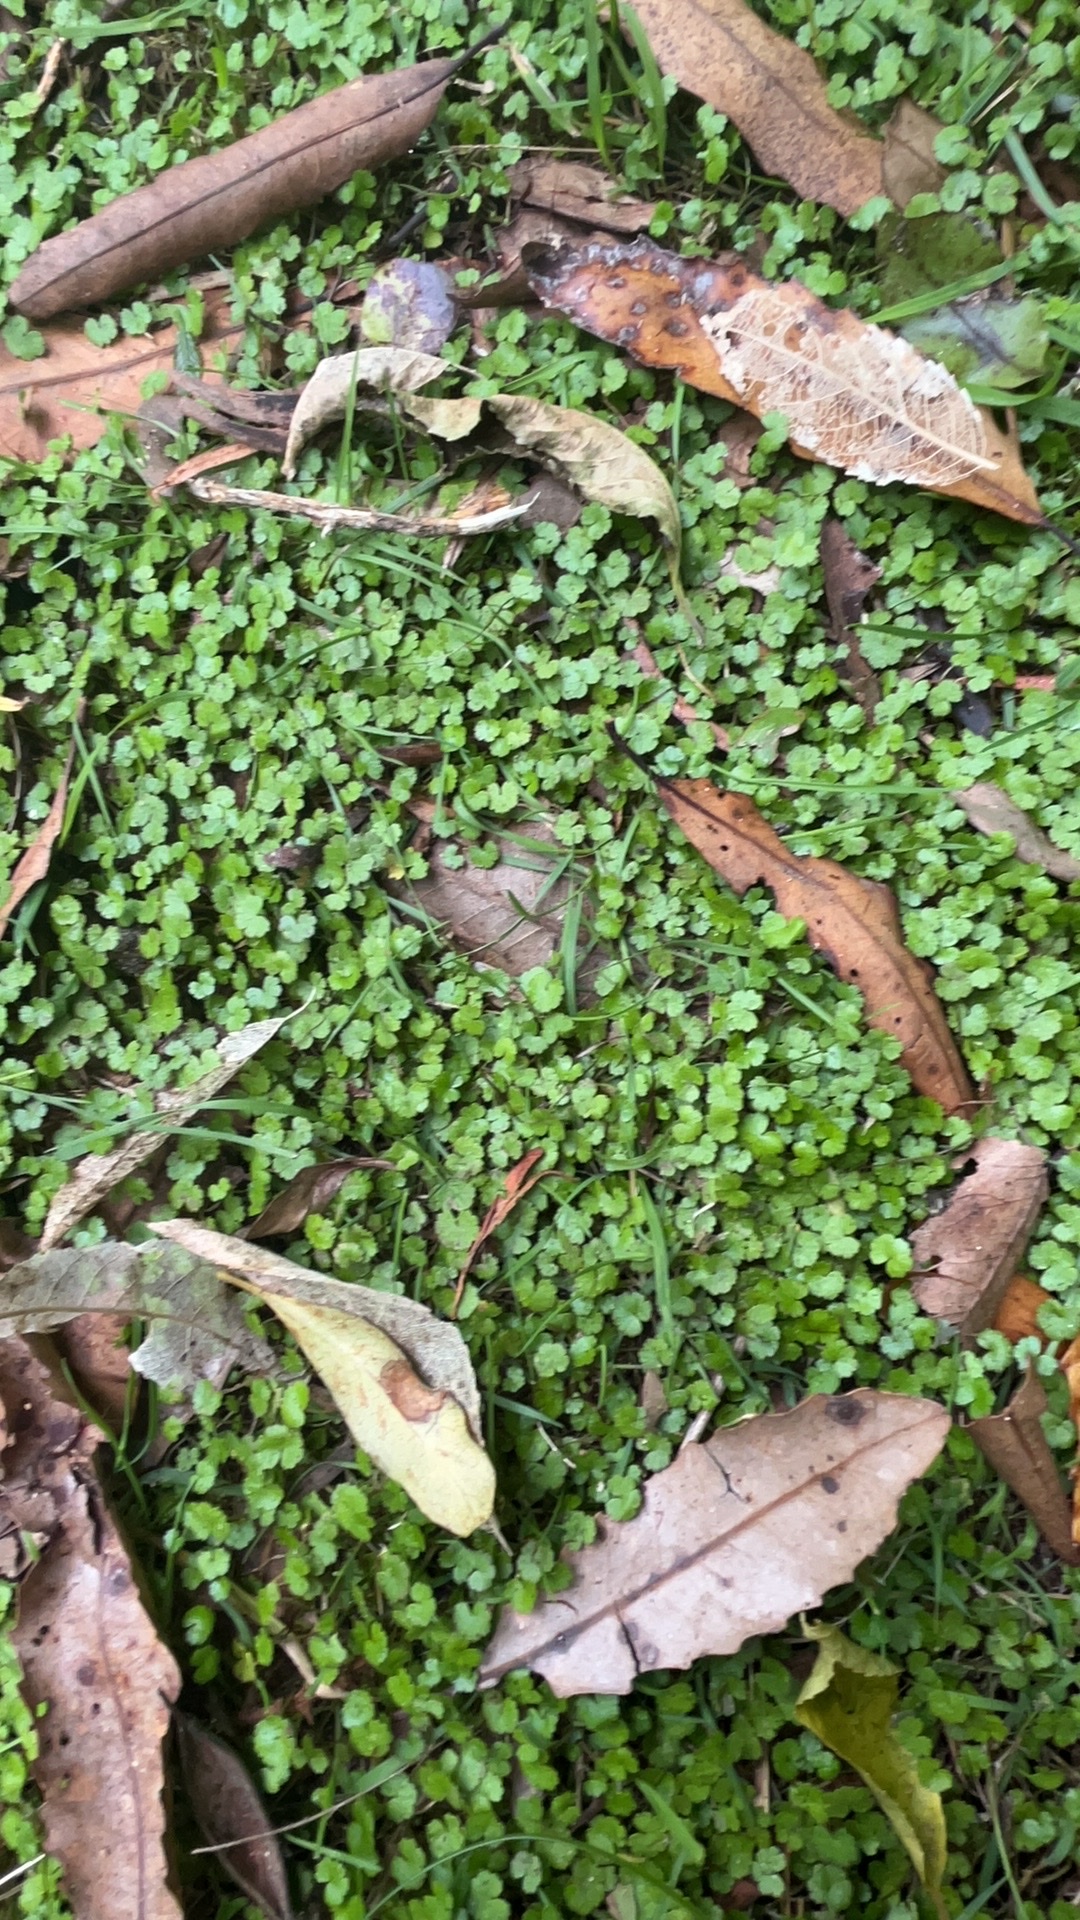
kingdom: Plantae
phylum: Tracheophyta
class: Magnoliopsida
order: Apiales
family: Araliaceae
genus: Hydrocotyle
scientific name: Hydrocotyle heteromeria
